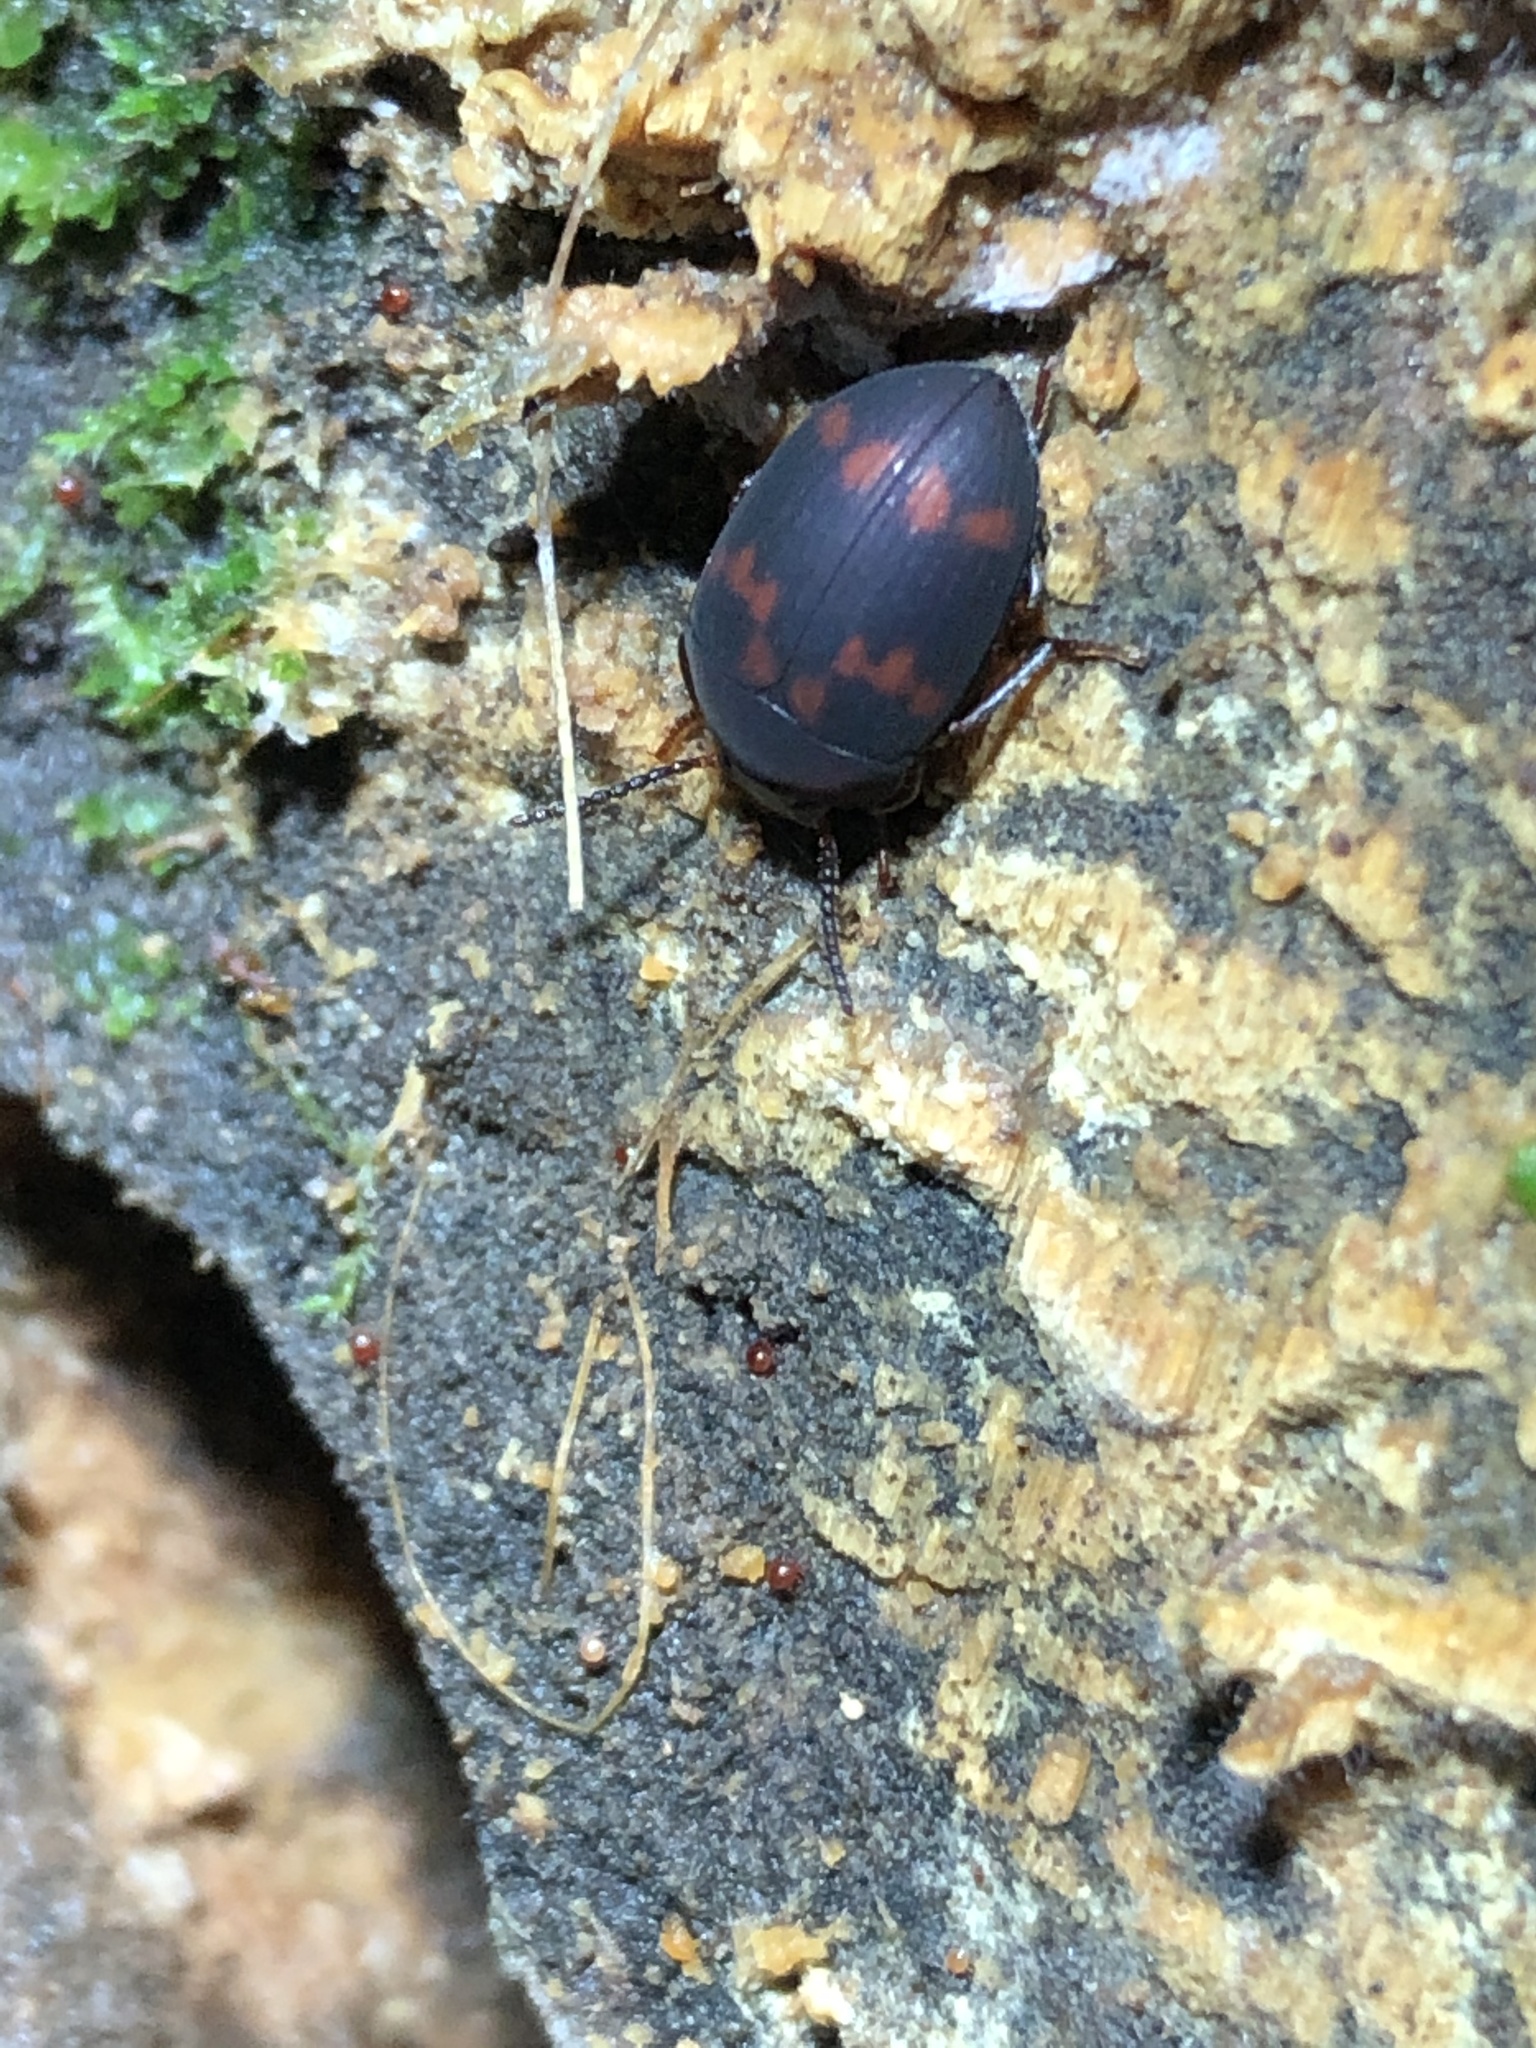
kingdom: Animalia
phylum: Arthropoda
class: Insecta
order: Coleoptera
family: Tenebrionidae
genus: Platydema
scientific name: Platydema tibialis
